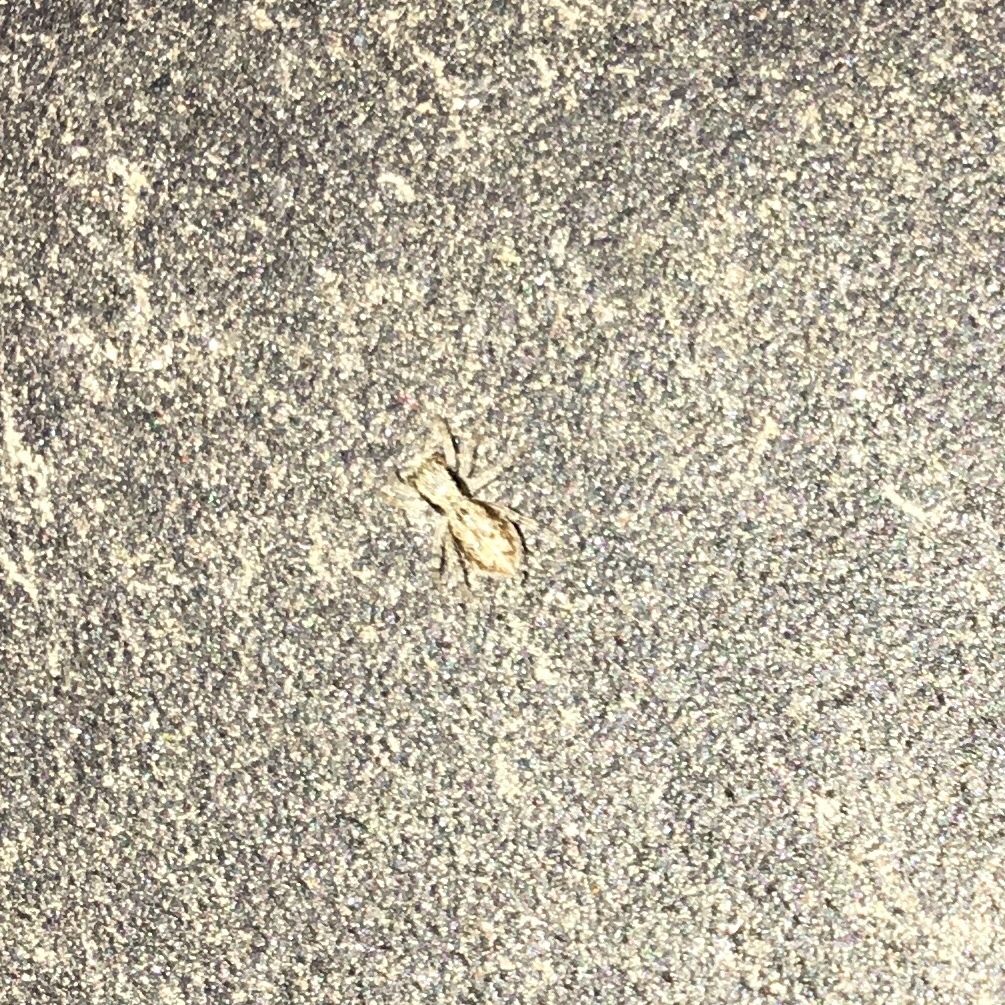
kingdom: Animalia
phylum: Arthropoda
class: Arachnida
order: Araneae
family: Salticidae
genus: Menemerus
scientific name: Menemerus bivittatus
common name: Gray wall jumper
